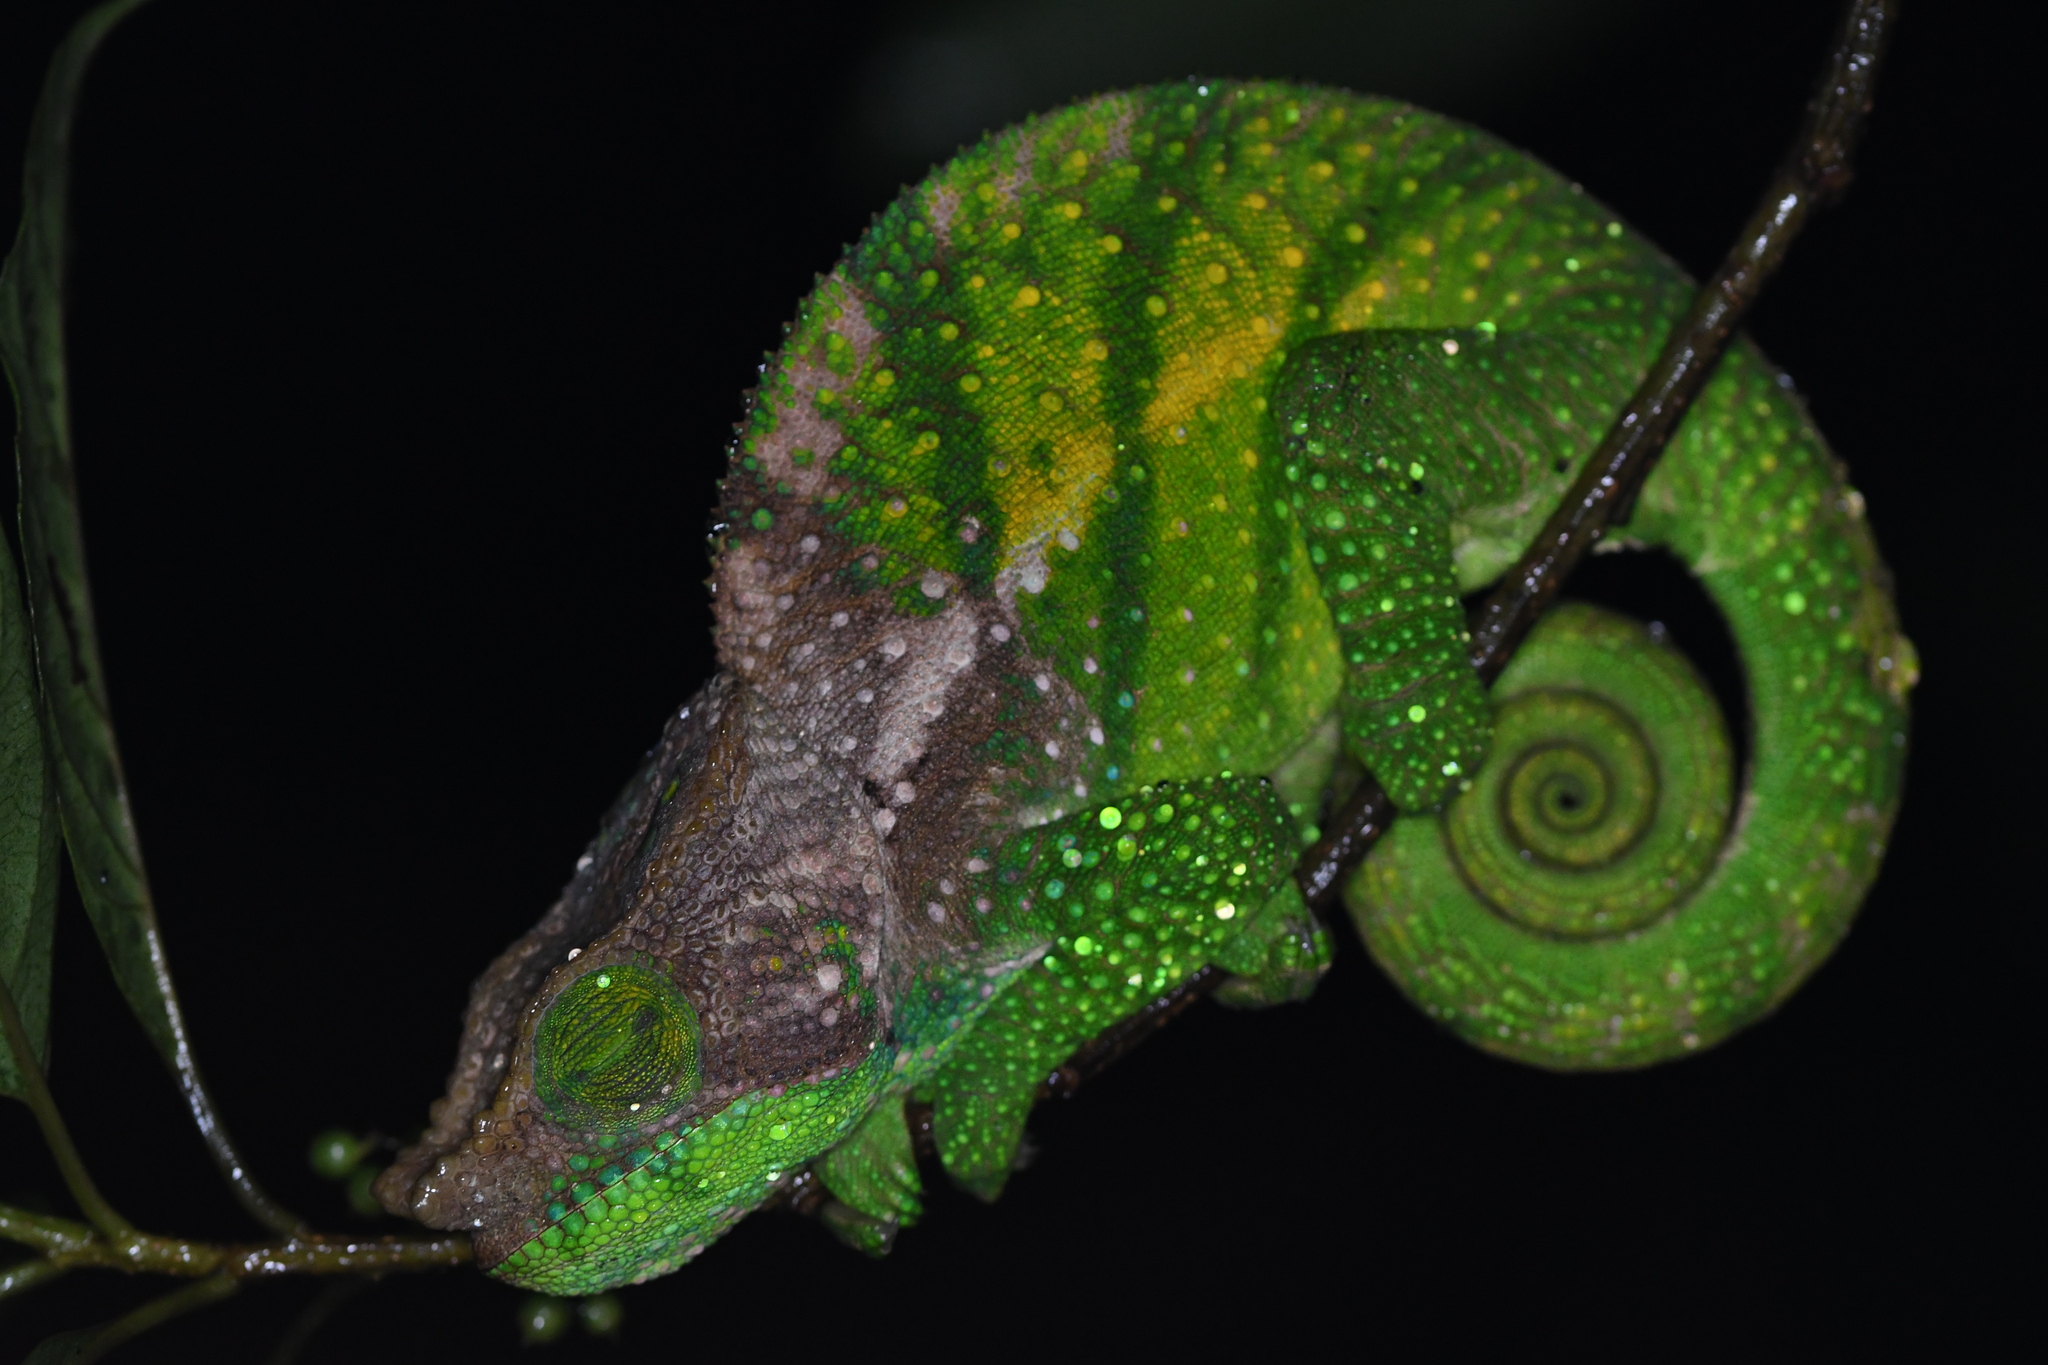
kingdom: Animalia
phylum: Chordata
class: Squamata
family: Chamaeleonidae
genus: Calumma
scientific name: Calumma oshaughnessyi
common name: O'shaughnessy's chameleon
